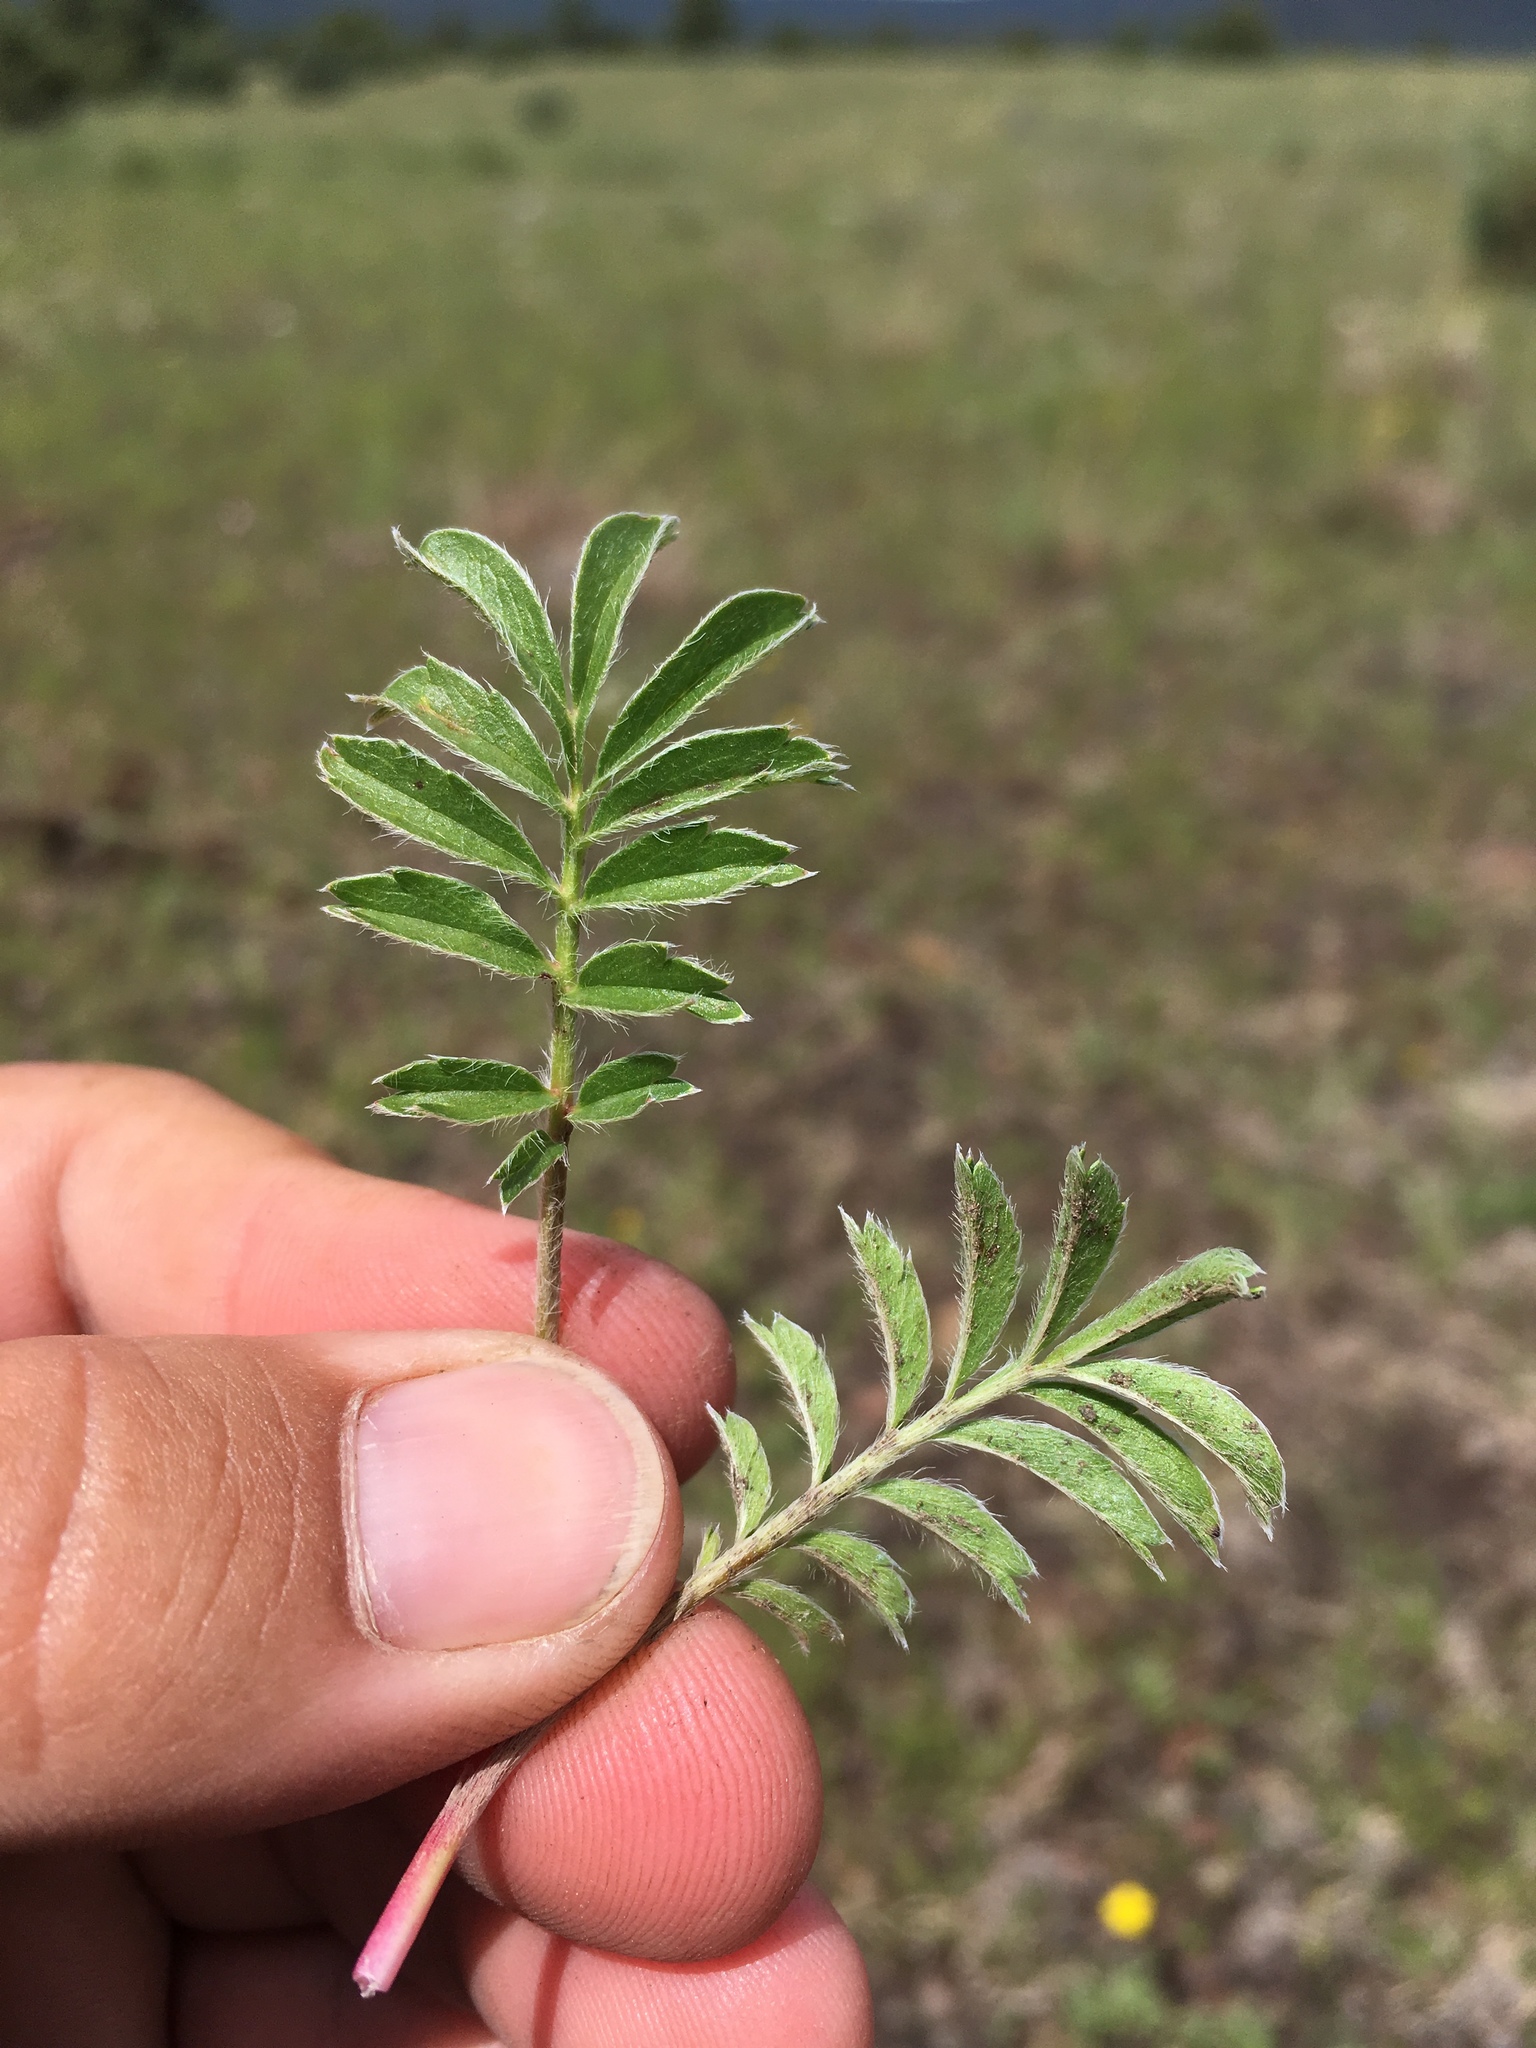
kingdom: Plantae
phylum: Tracheophyta
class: Magnoliopsida
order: Rosales
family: Rosaceae
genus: Potentilla
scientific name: Potentilla crinita
